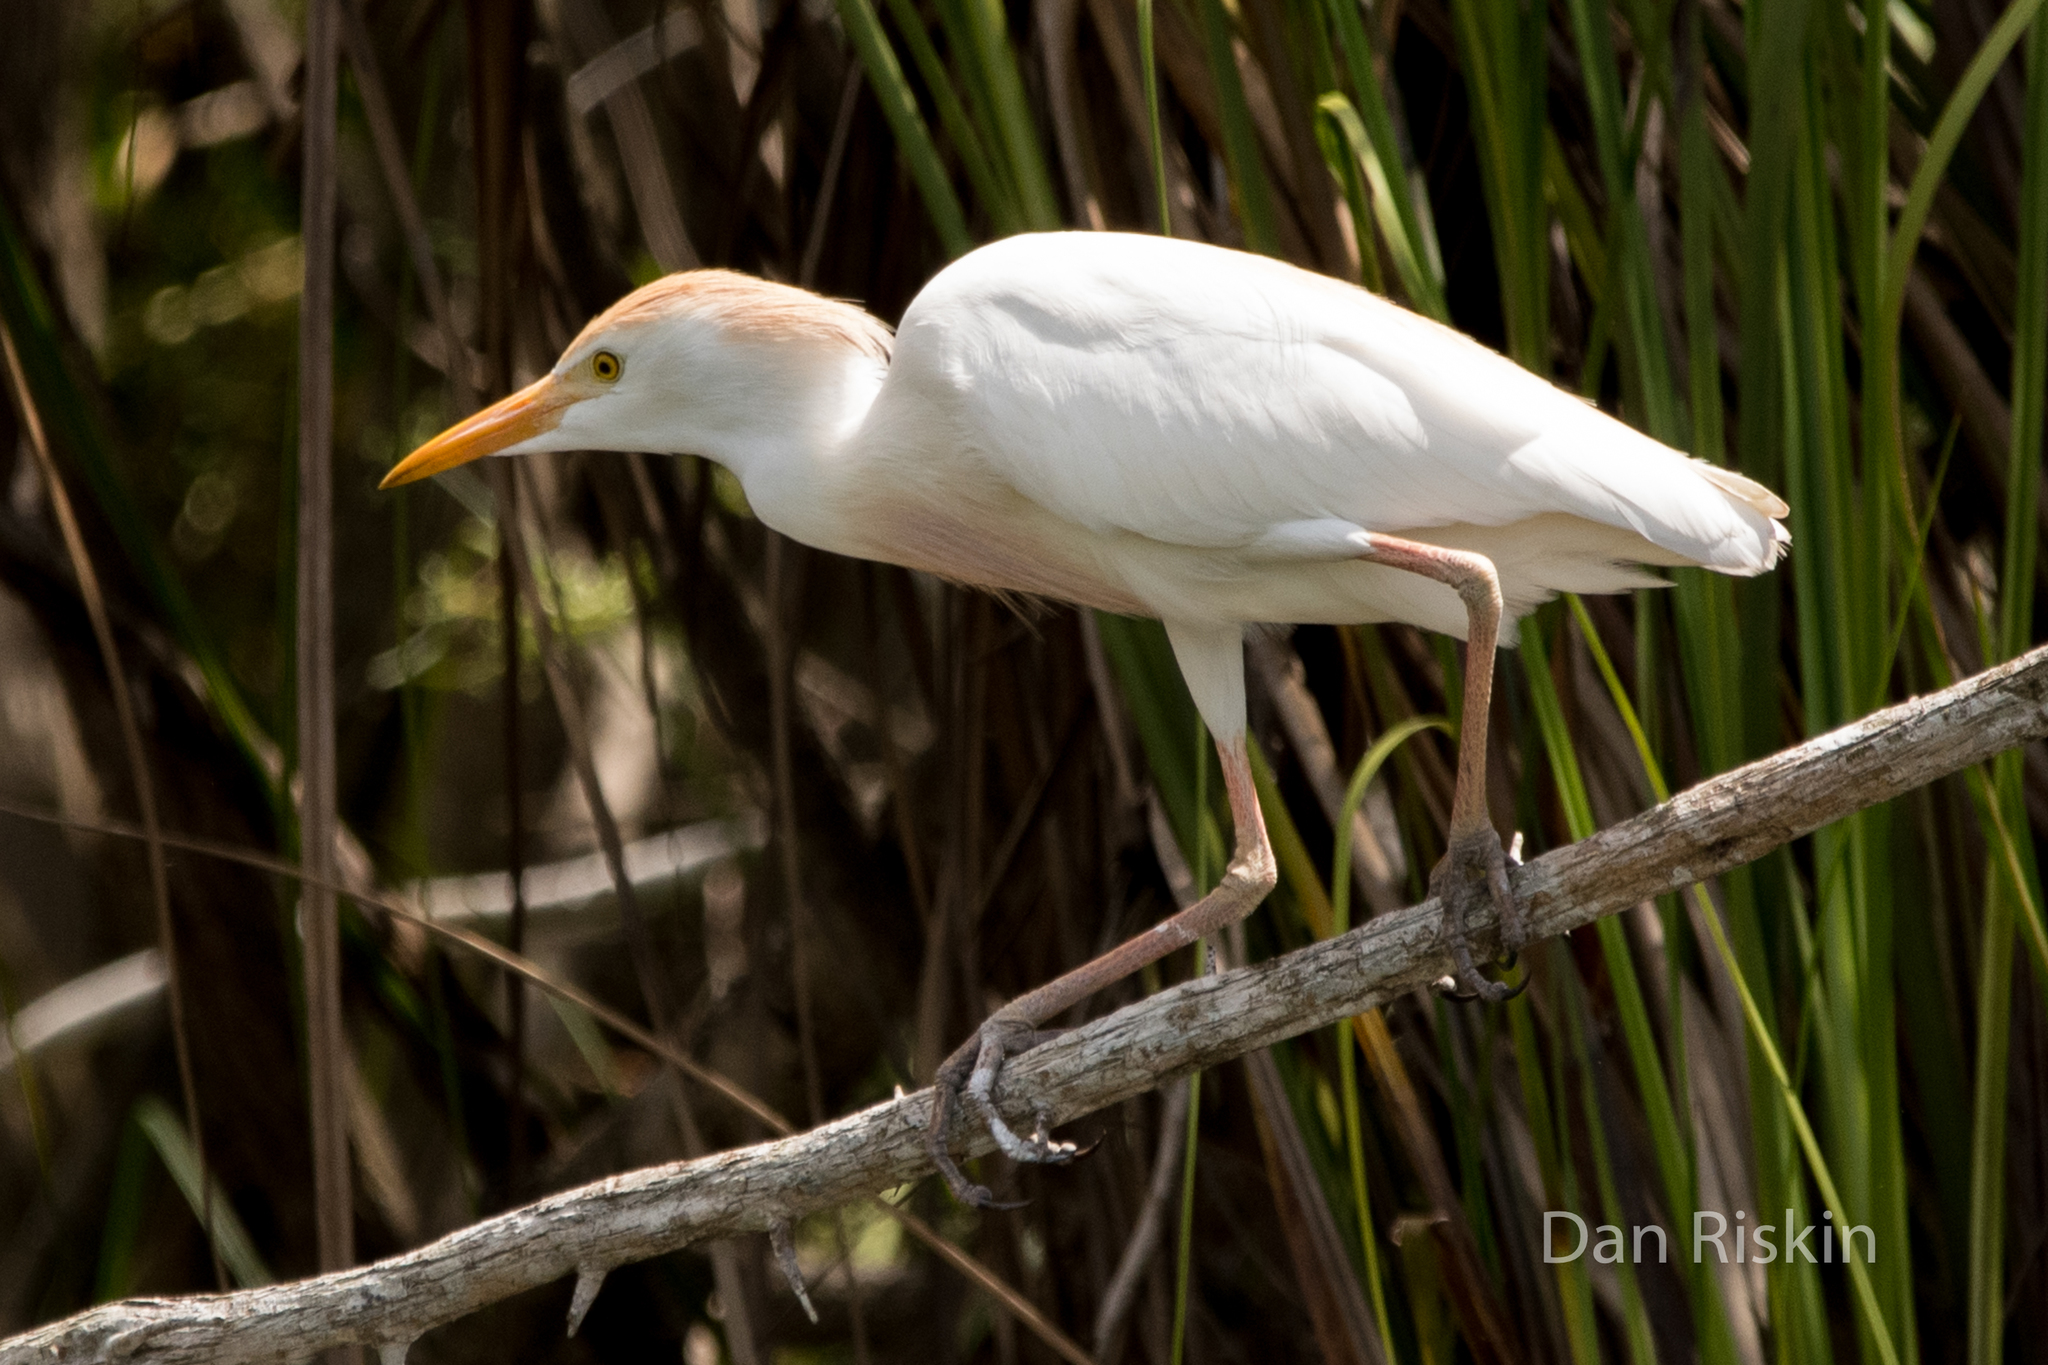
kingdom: Animalia
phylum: Chordata
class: Aves
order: Pelecaniformes
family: Ardeidae
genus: Bubulcus
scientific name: Bubulcus ibis
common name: Cattle egret
